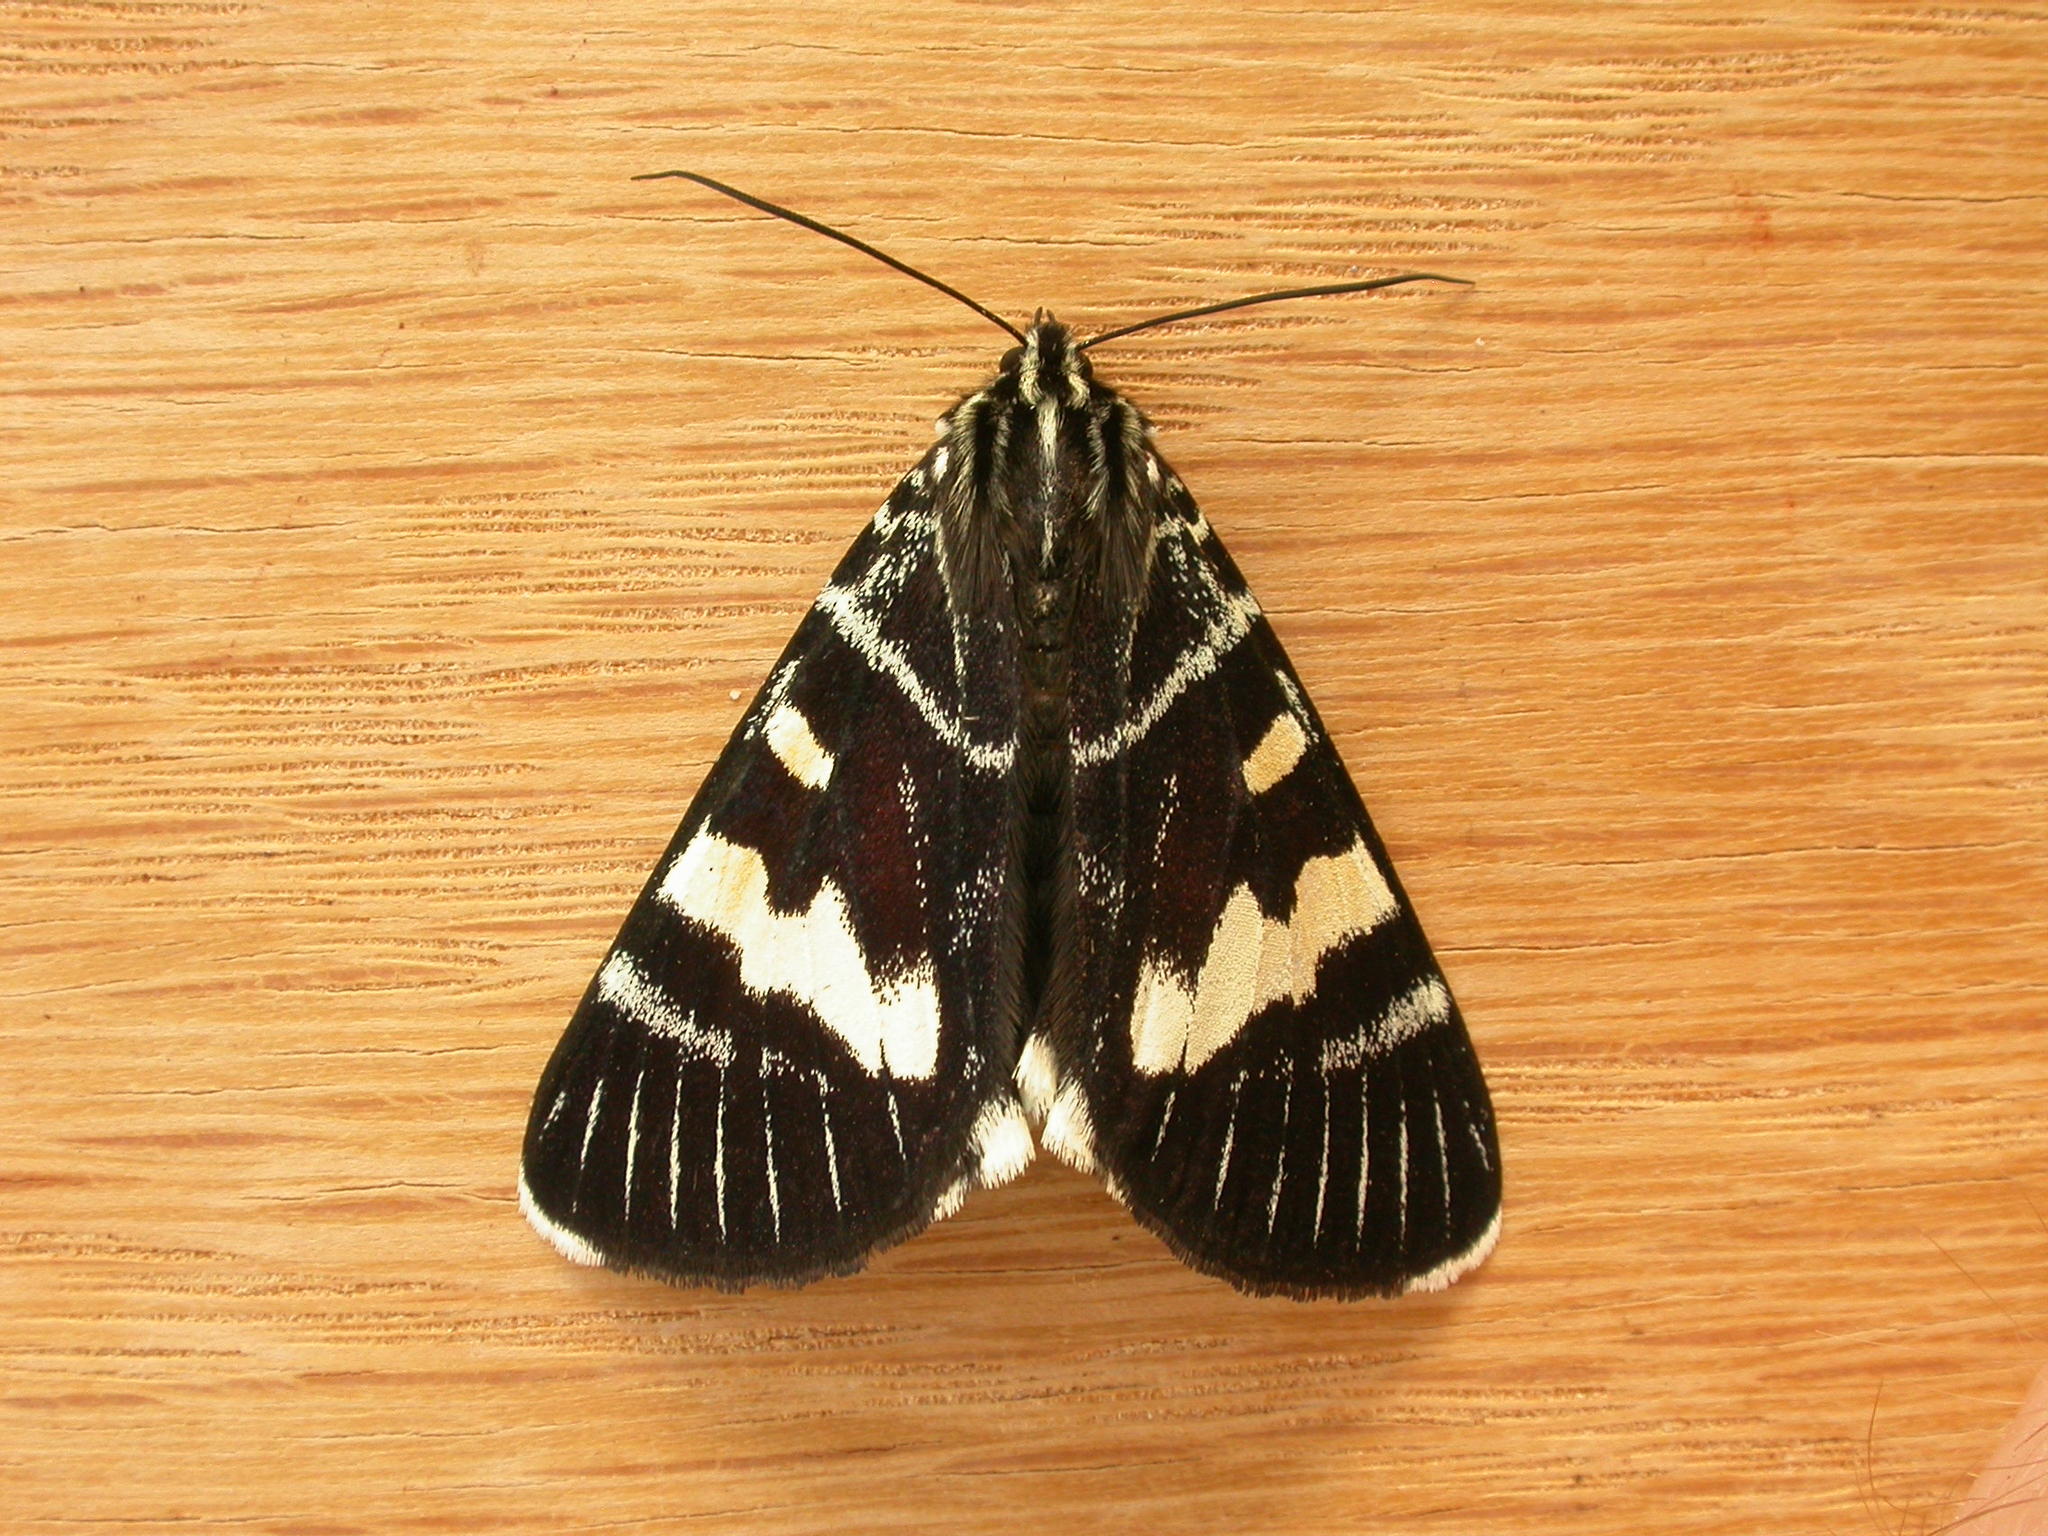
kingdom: Animalia
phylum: Arthropoda
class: Insecta
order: Lepidoptera
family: Noctuidae
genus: Phalaenoides
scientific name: Phalaenoides glycinae
